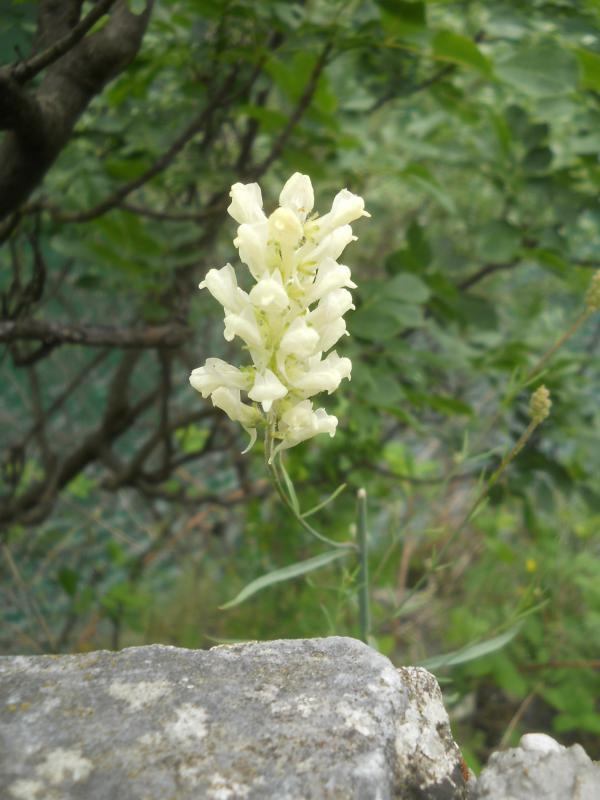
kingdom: Plantae
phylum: Tracheophyta
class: Magnoliopsida
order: Lamiales
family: Plantaginaceae
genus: Linaria
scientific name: Linaria peloponnesiaca
